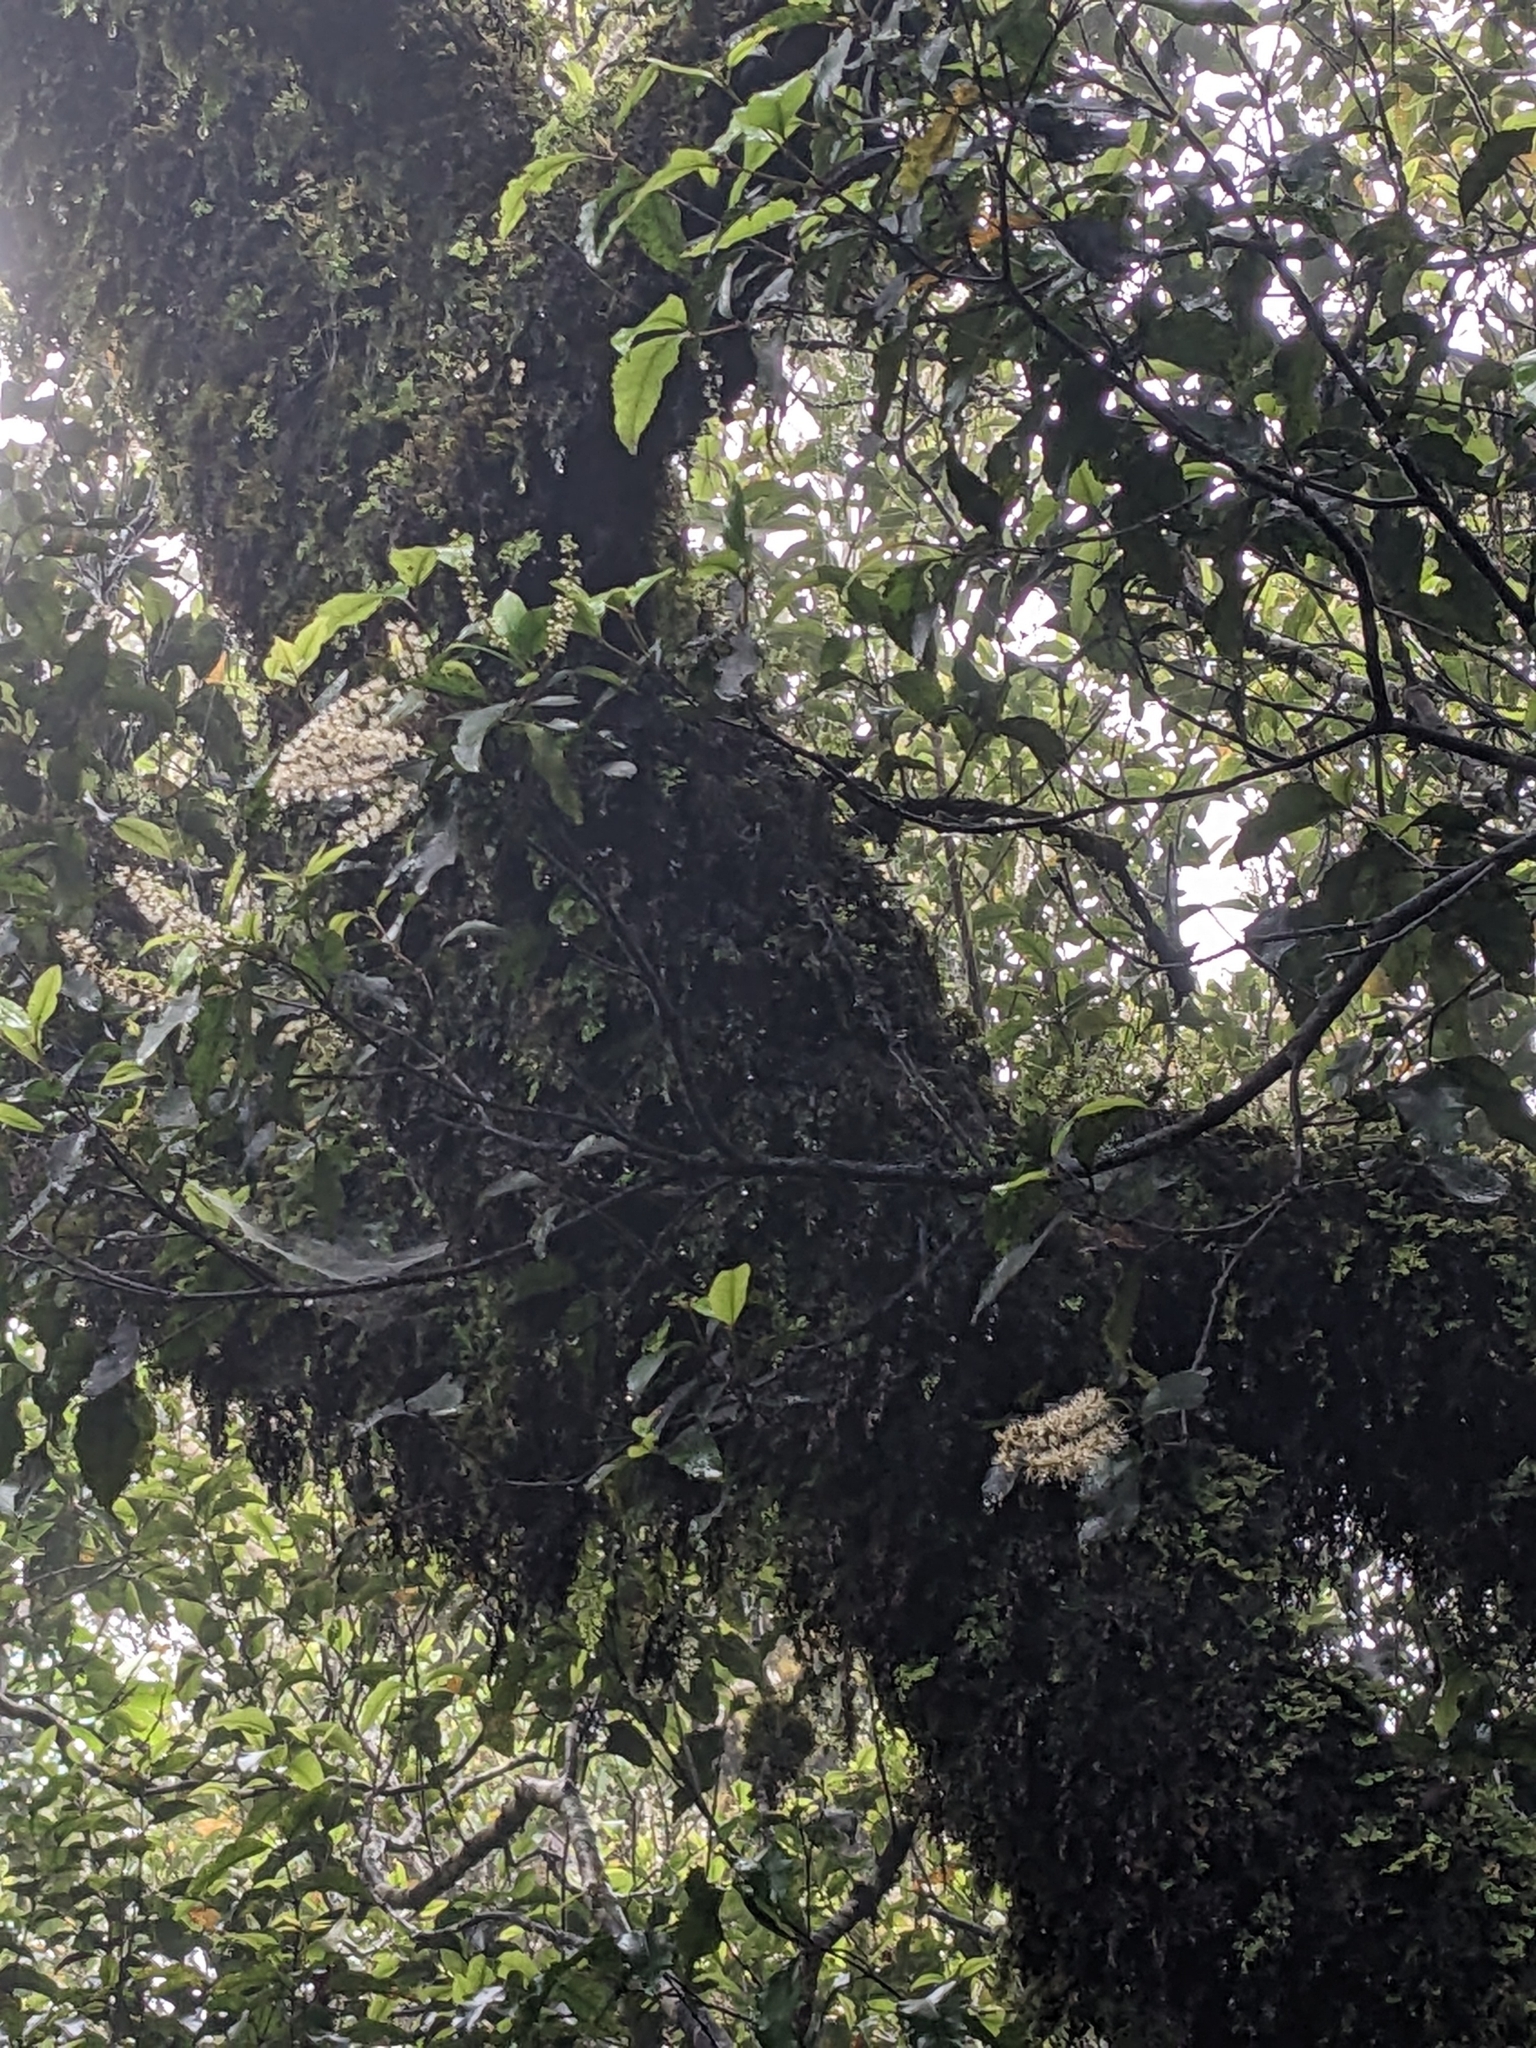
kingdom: Plantae
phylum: Tracheophyta
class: Magnoliopsida
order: Oxalidales
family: Cunoniaceae
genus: Pterophylla
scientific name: Pterophylla racemosa
